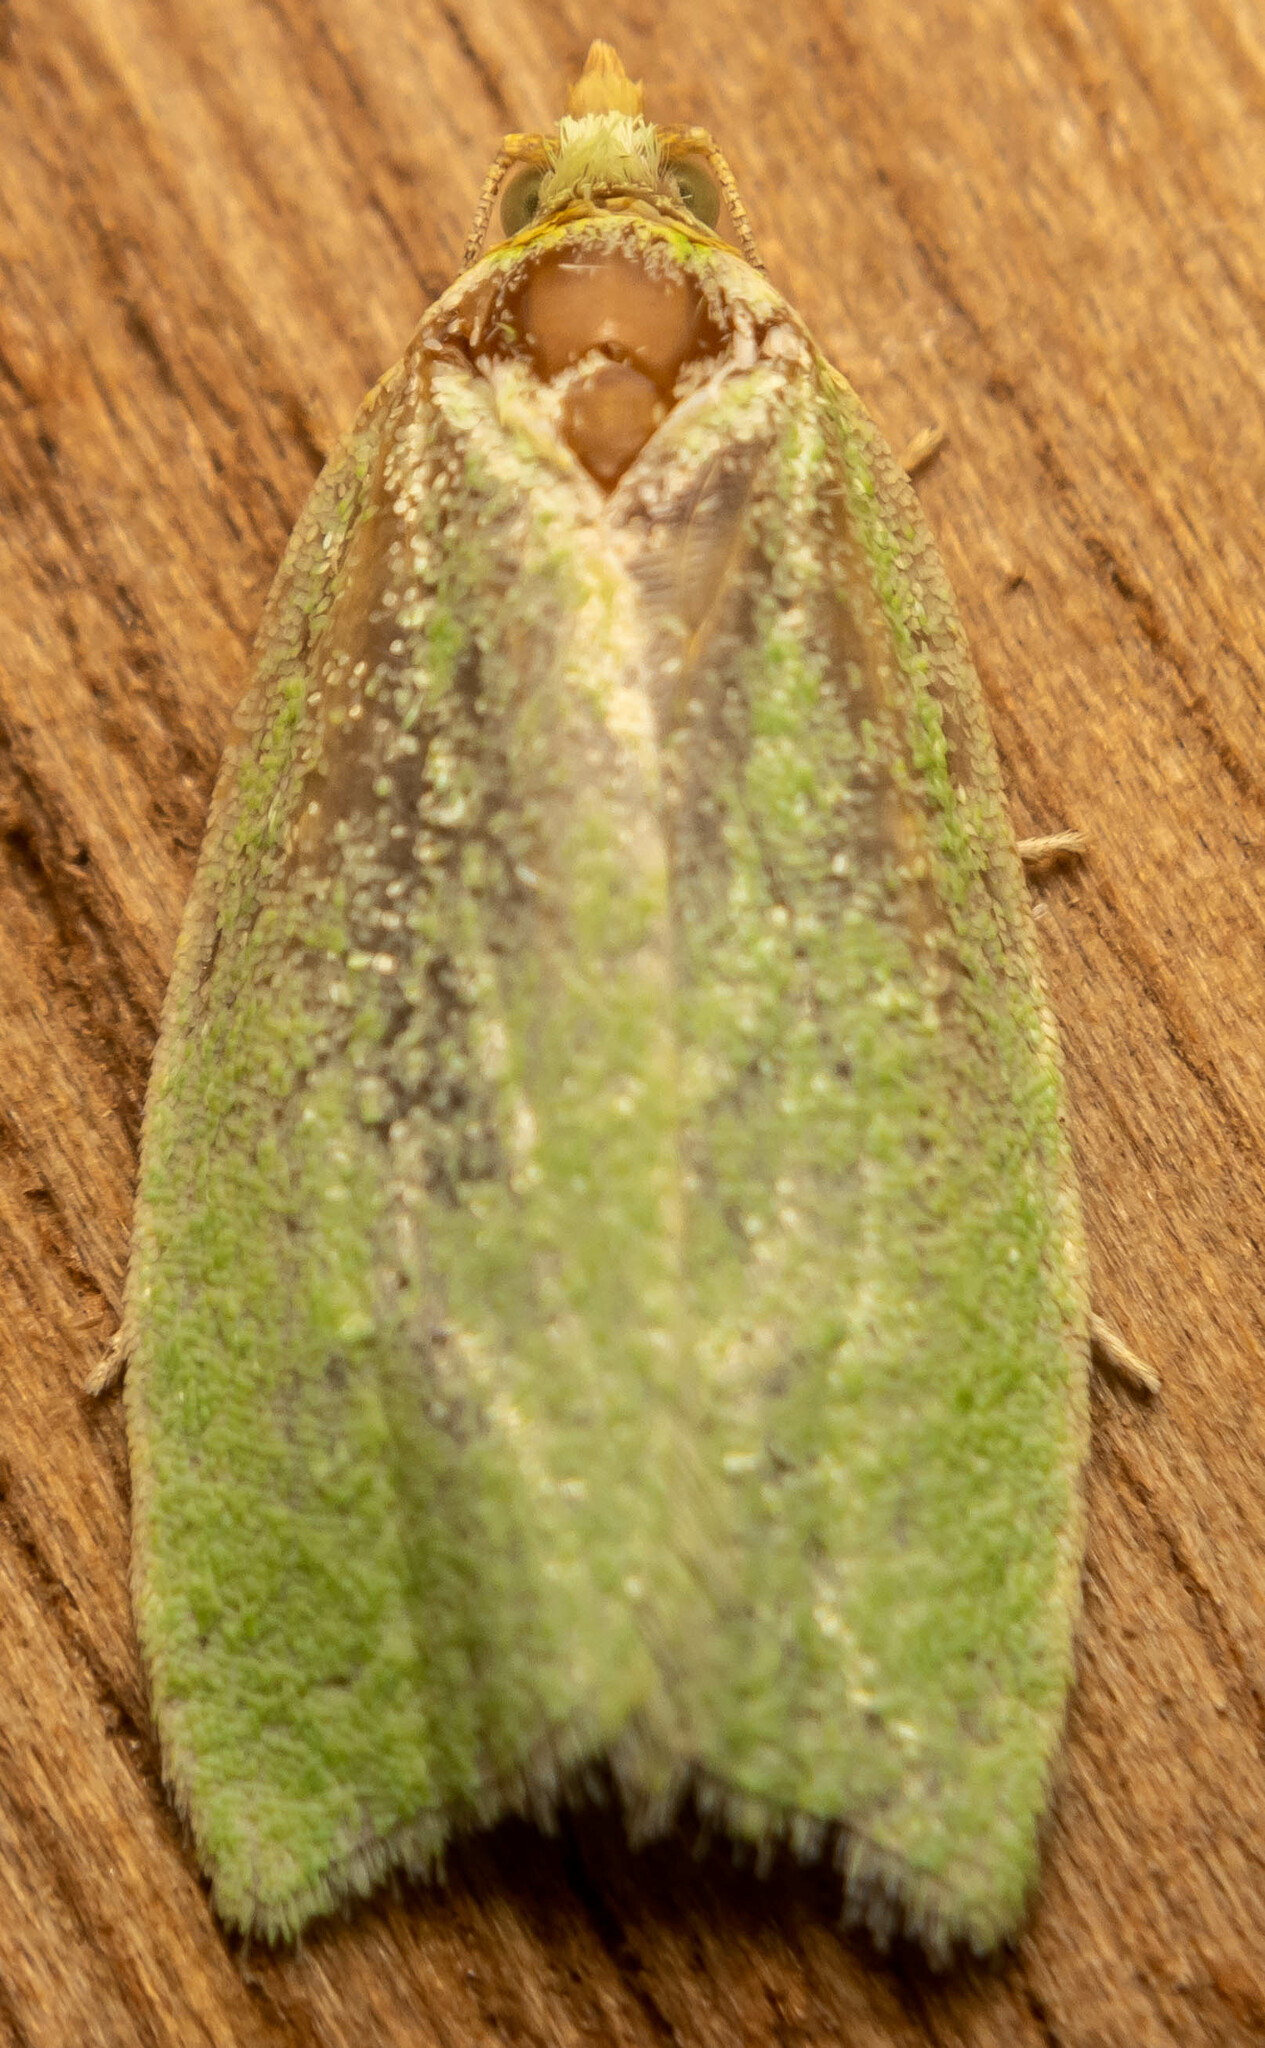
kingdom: Animalia
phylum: Arthropoda
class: Insecta
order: Lepidoptera
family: Tortricidae
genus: Tortrix
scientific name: Tortrix viridana
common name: Green oak tortrix
